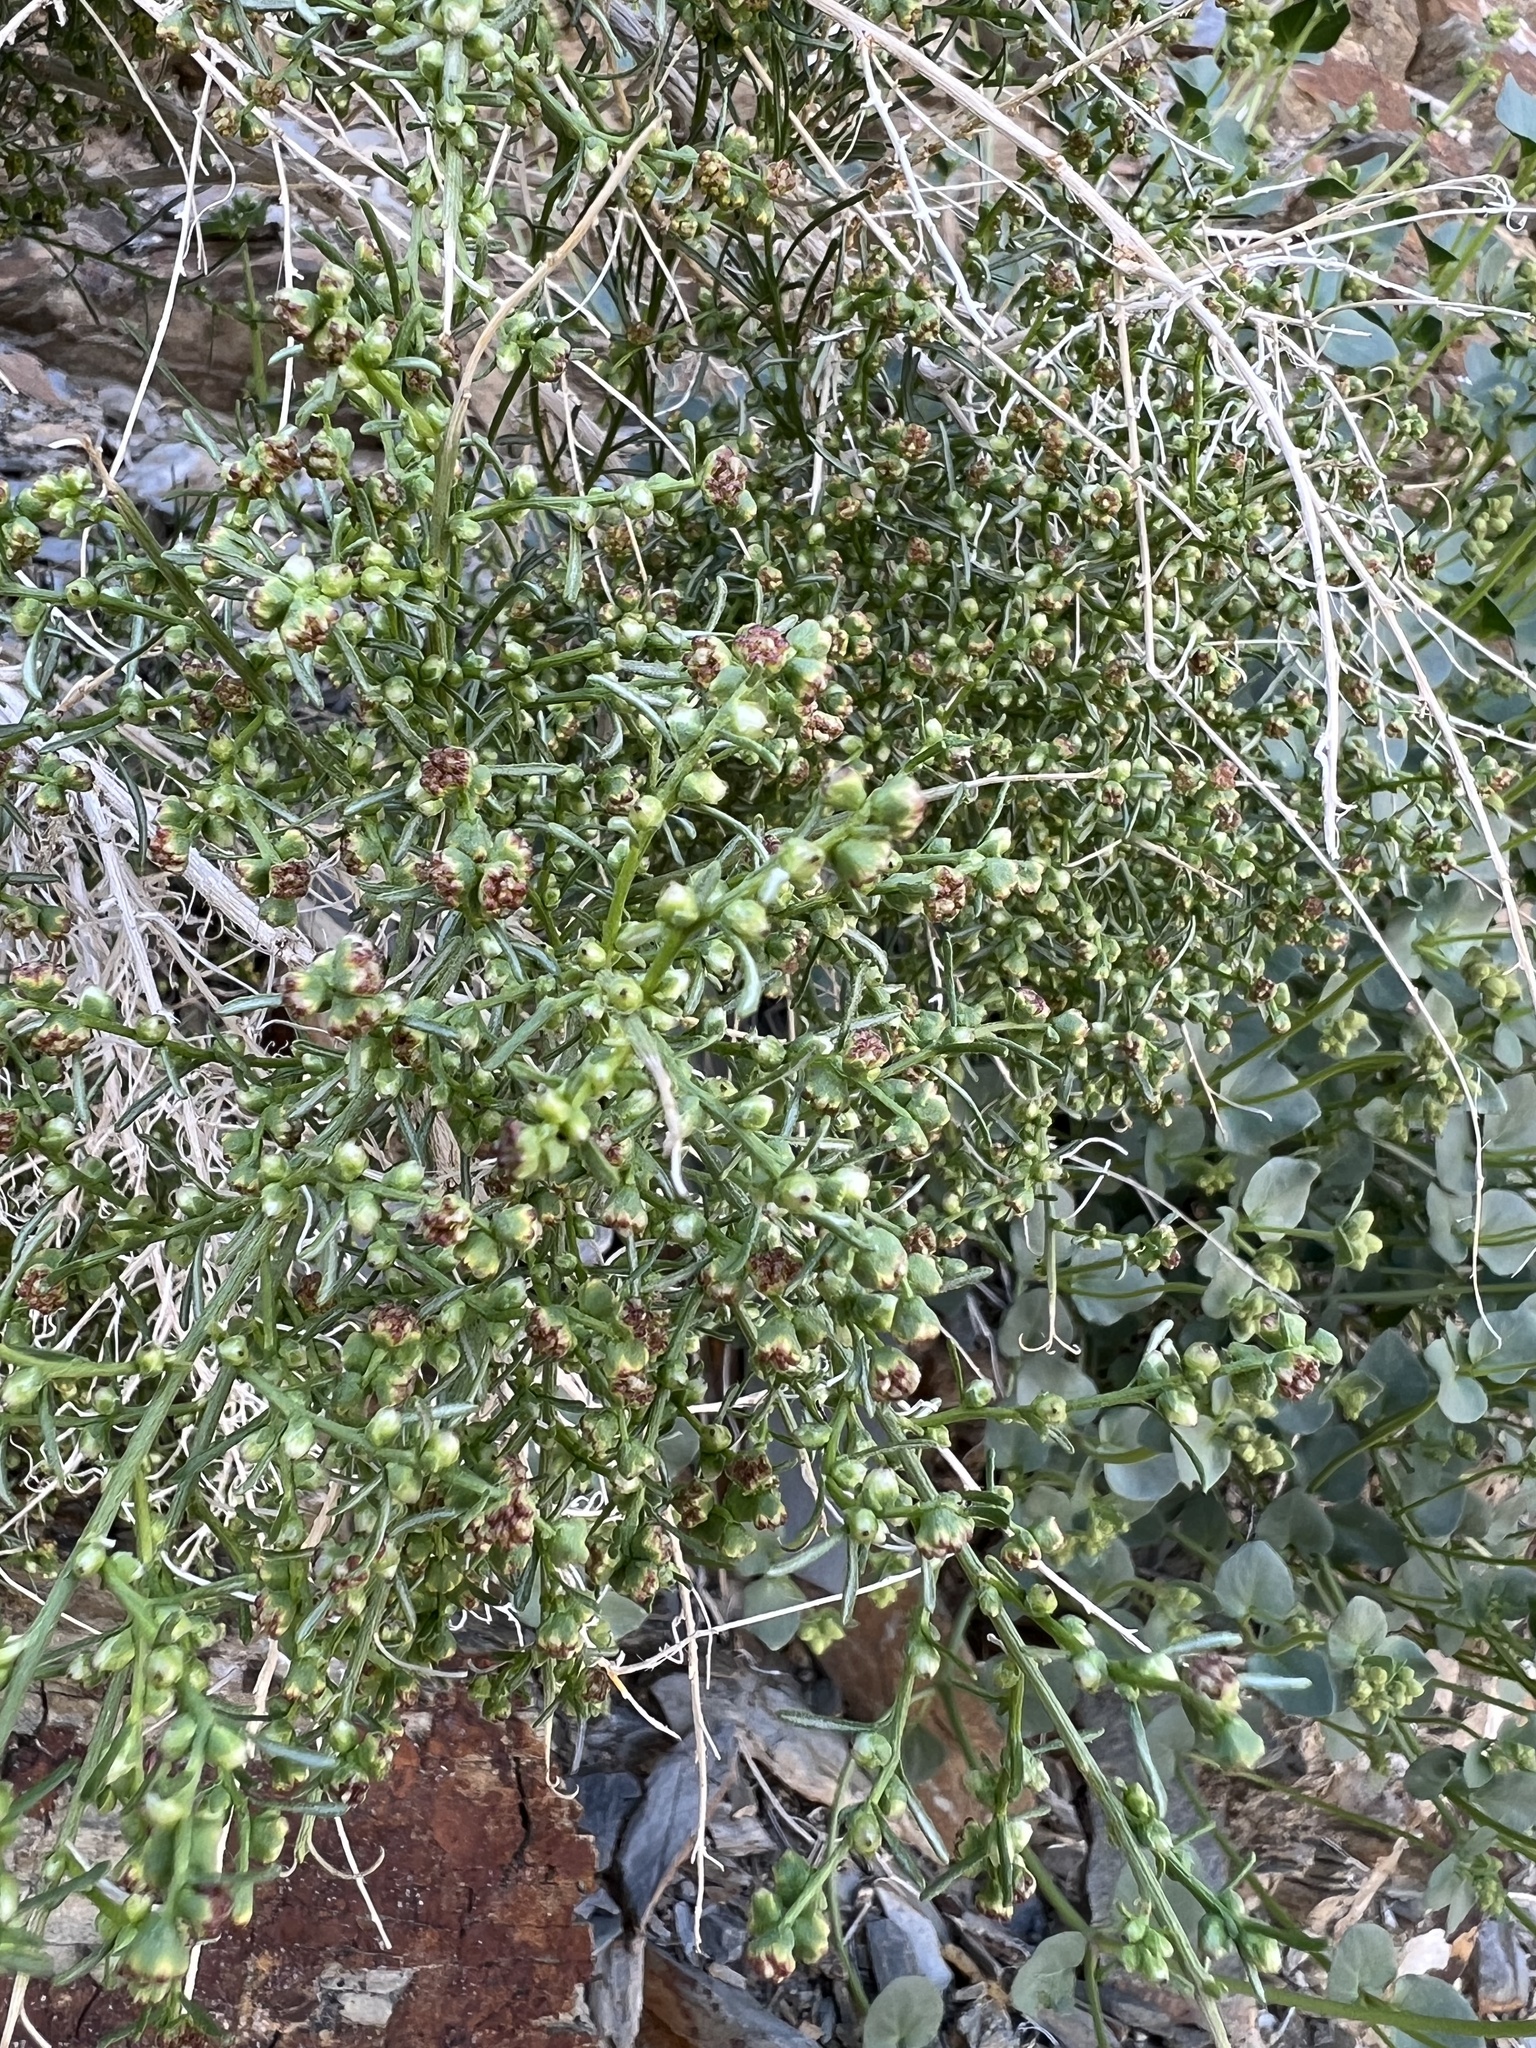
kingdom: Plantae
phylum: Tracheophyta
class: Magnoliopsida
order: Asterales
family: Asteraceae
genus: Ambrosia
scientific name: Ambrosia salsola
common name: Burrobrush
